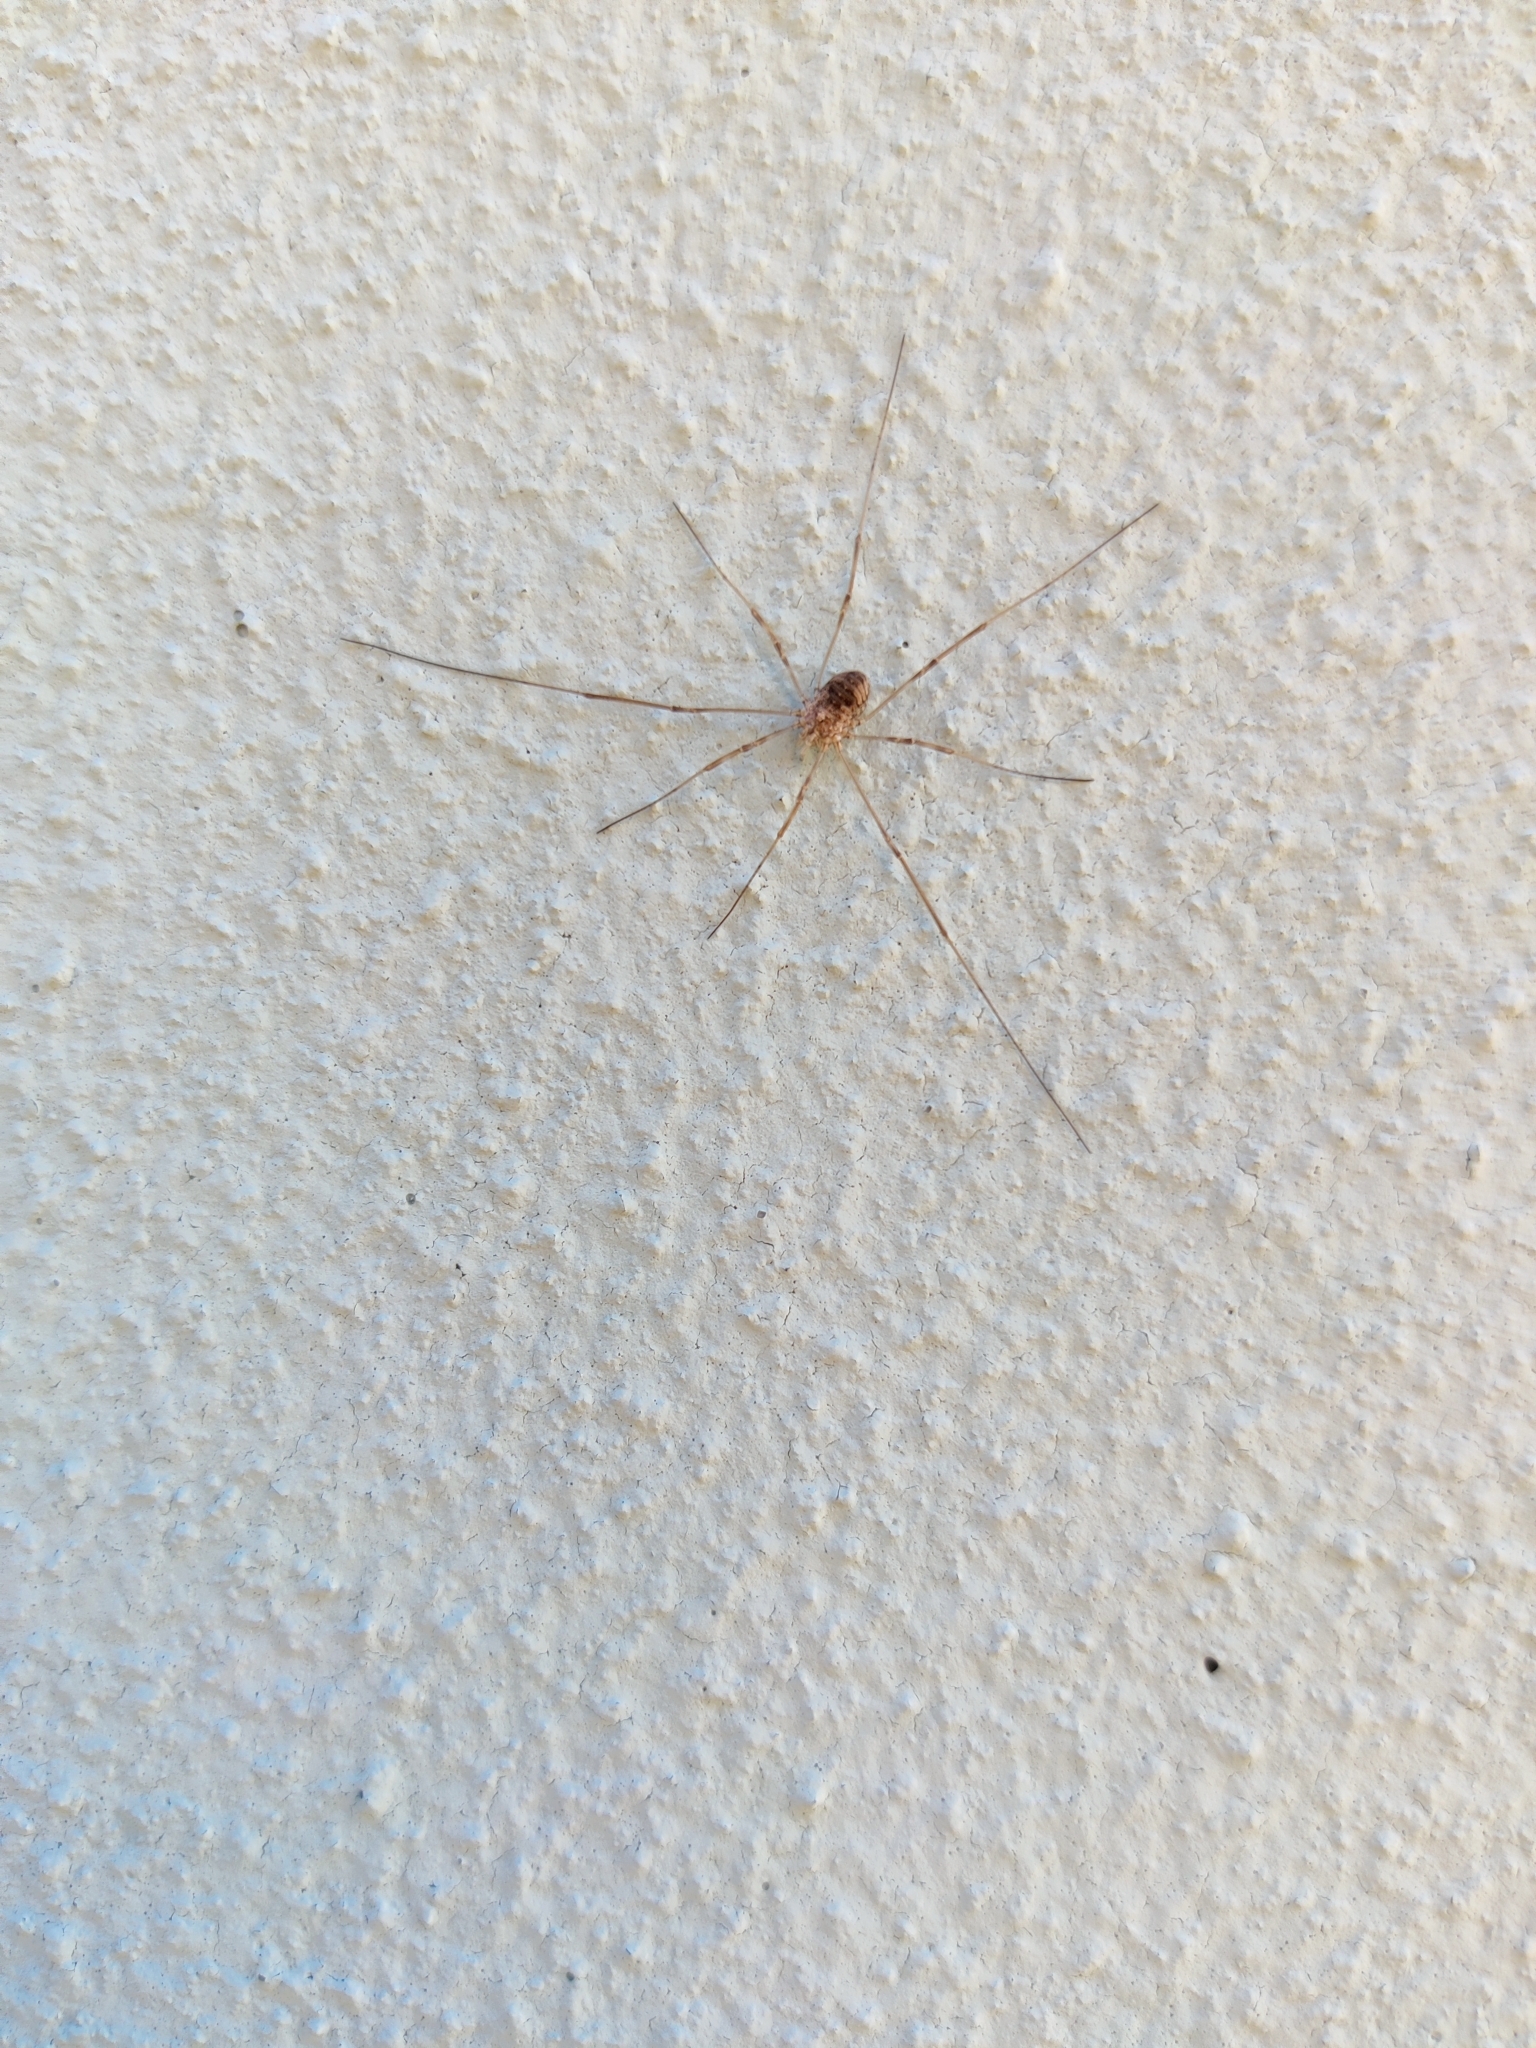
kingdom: Animalia
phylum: Arthropoda
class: Arachnida
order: Opiliones
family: Phalangiidae
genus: Phalangium
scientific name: Phalangium opilio
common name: Daddy longleg
